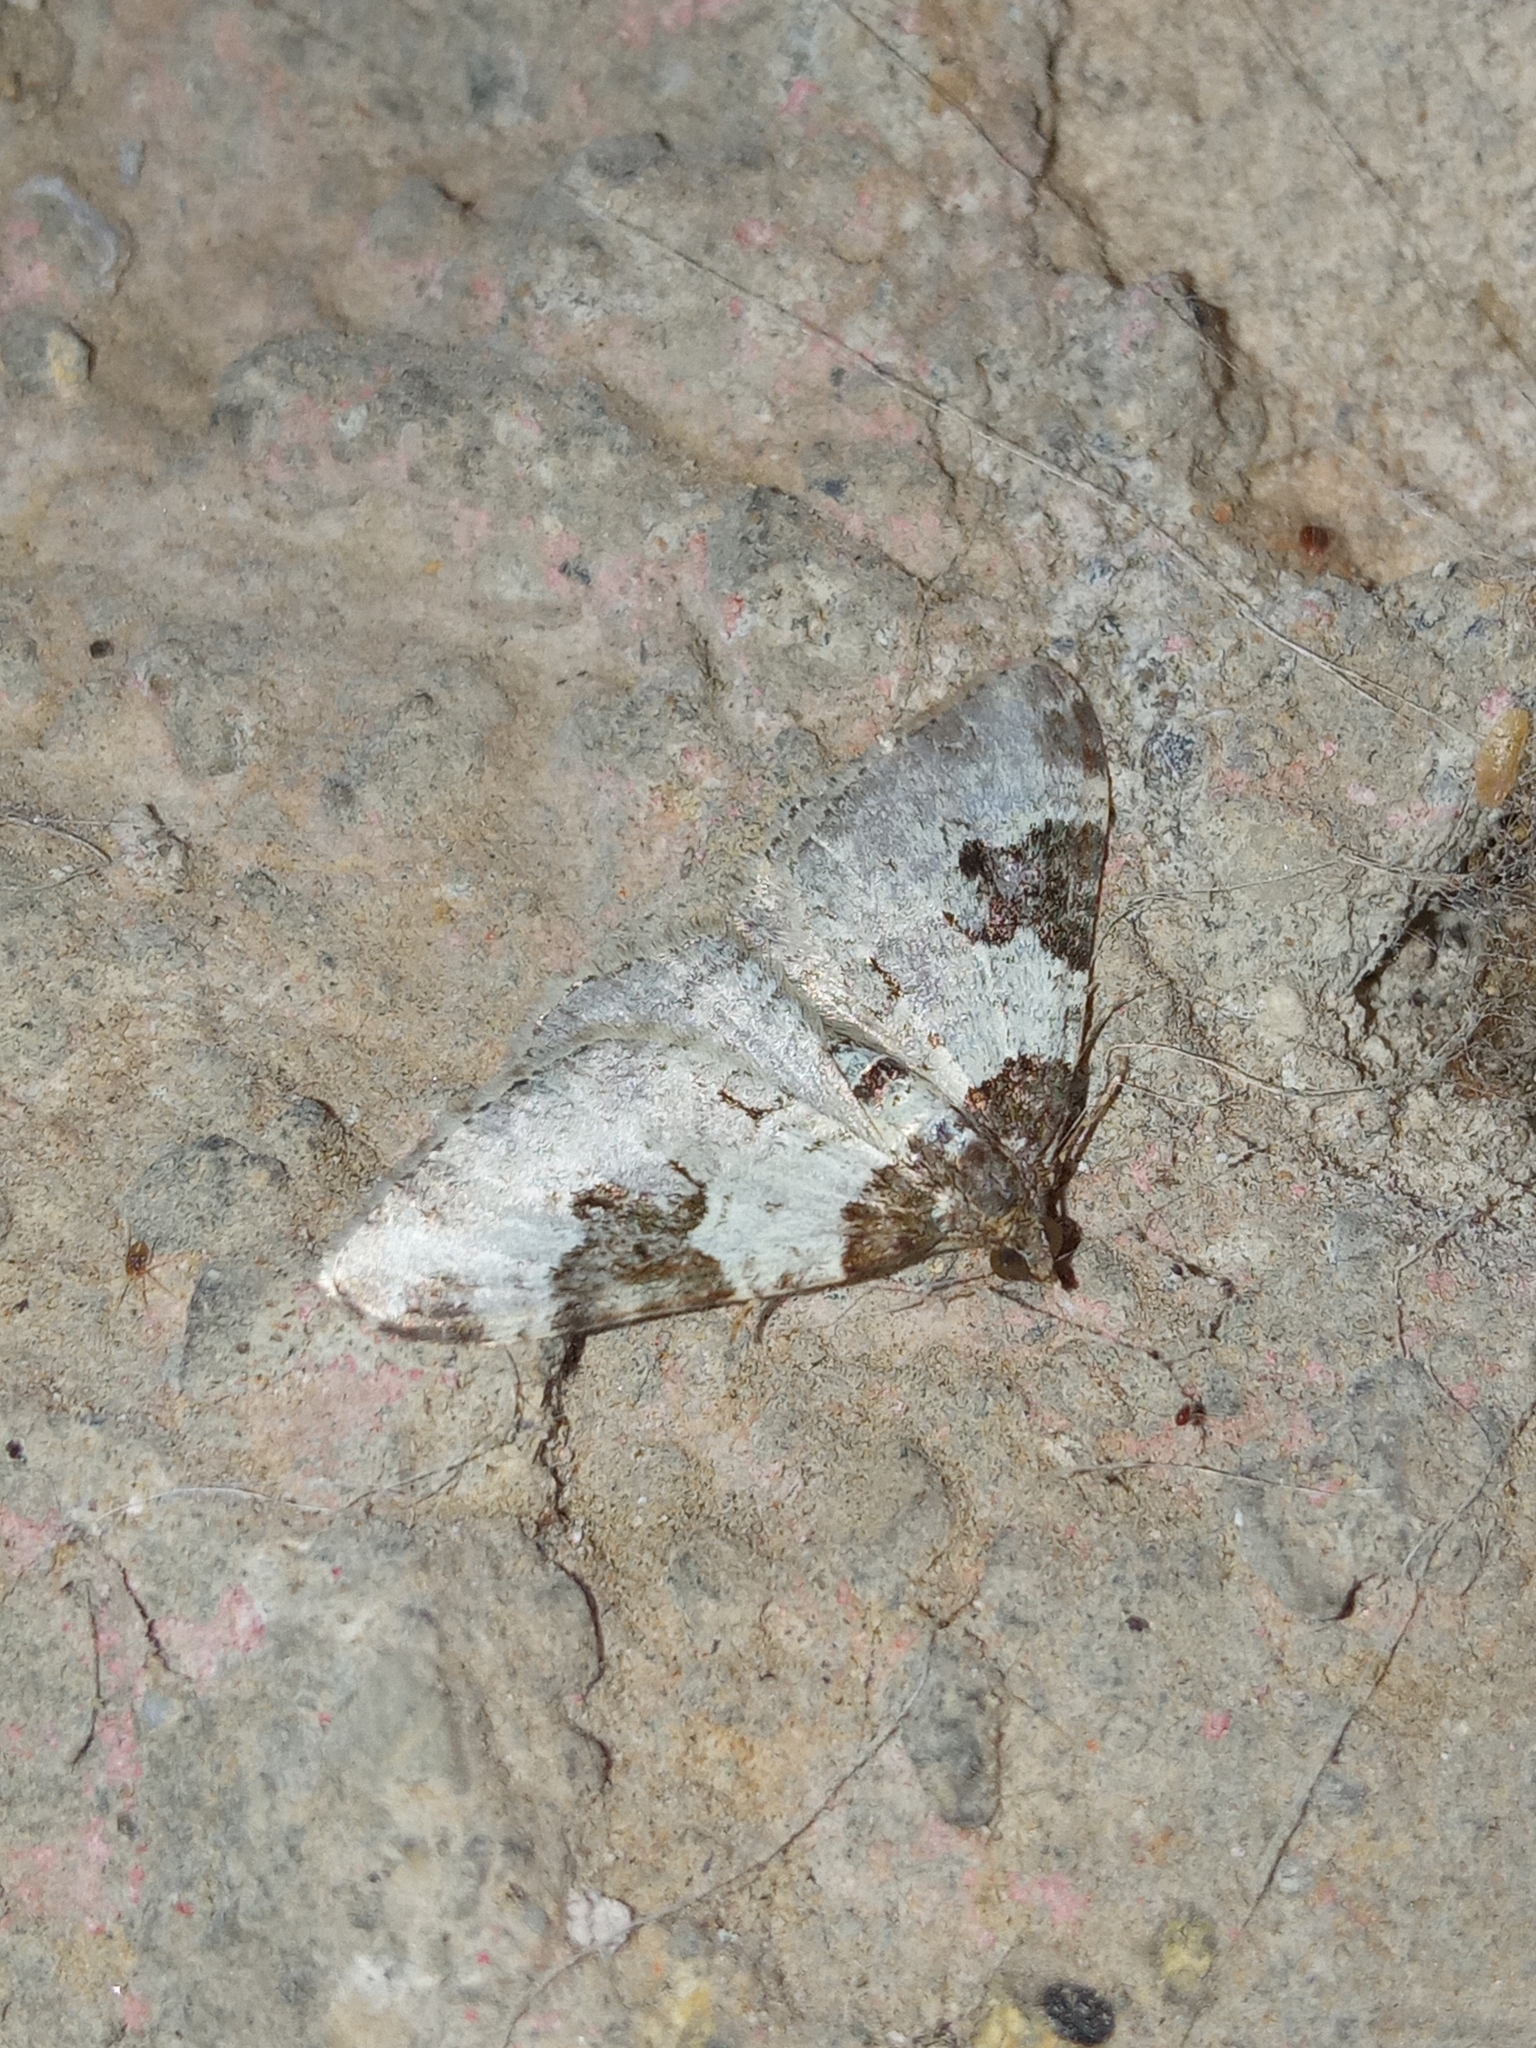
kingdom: Animalia
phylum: Arthropoda
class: Insecta
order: Lepidoptera
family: Geometridae
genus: Xanthorhoe
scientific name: Xanthorhoe fluctuata
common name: Garden carpet
